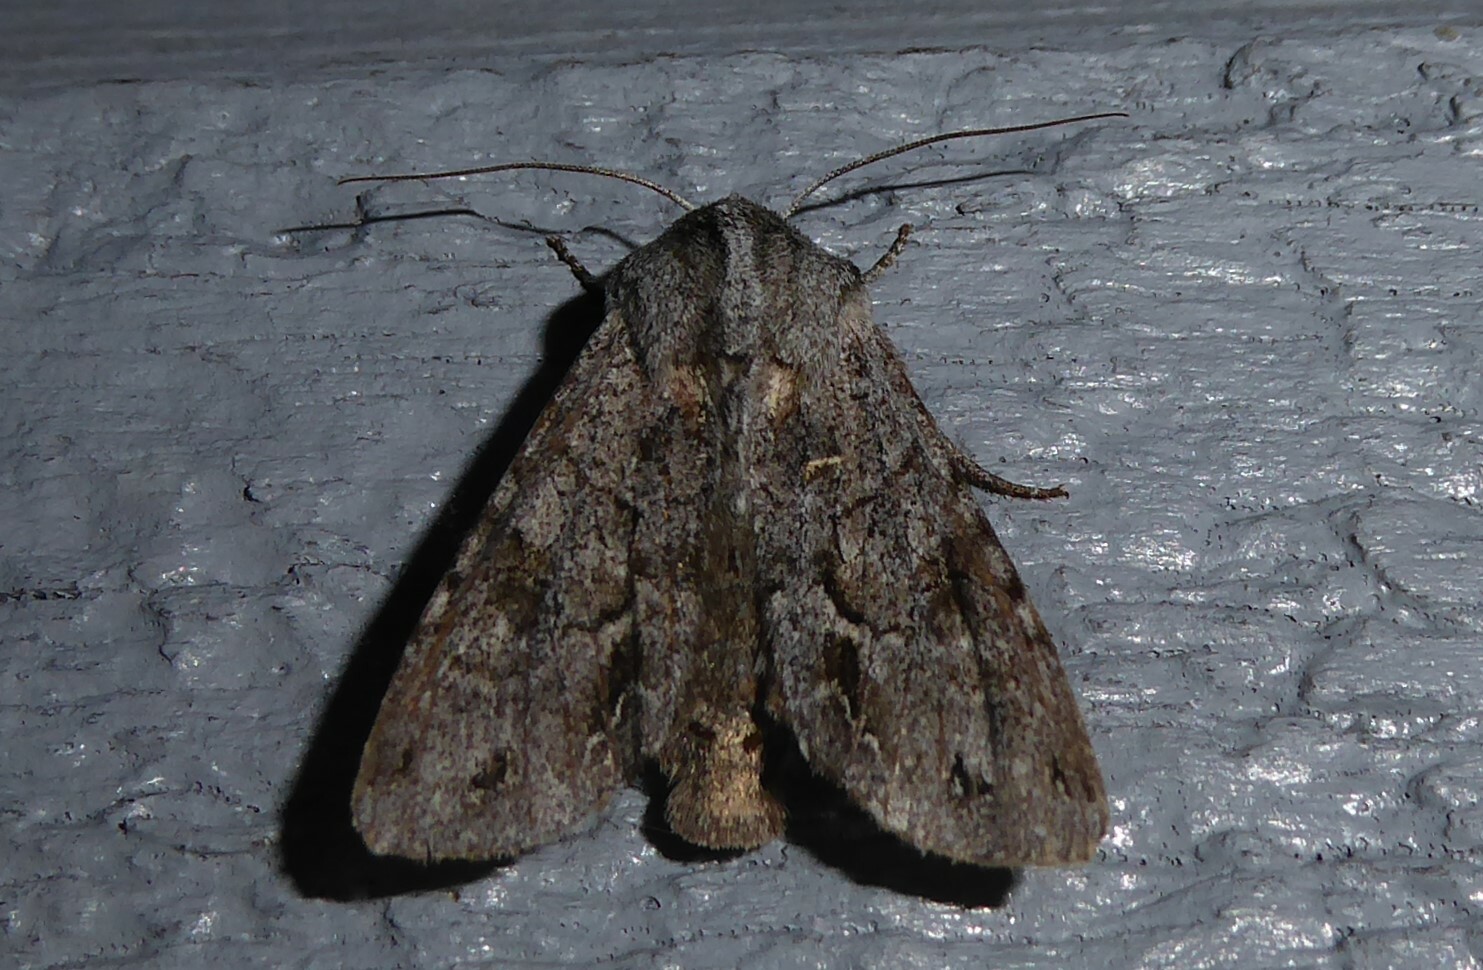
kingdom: Animalia
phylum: Arthropoda
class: Insecta
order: Lepidoptera
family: Noctuidae
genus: Ichneutica
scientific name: Ichneutica
